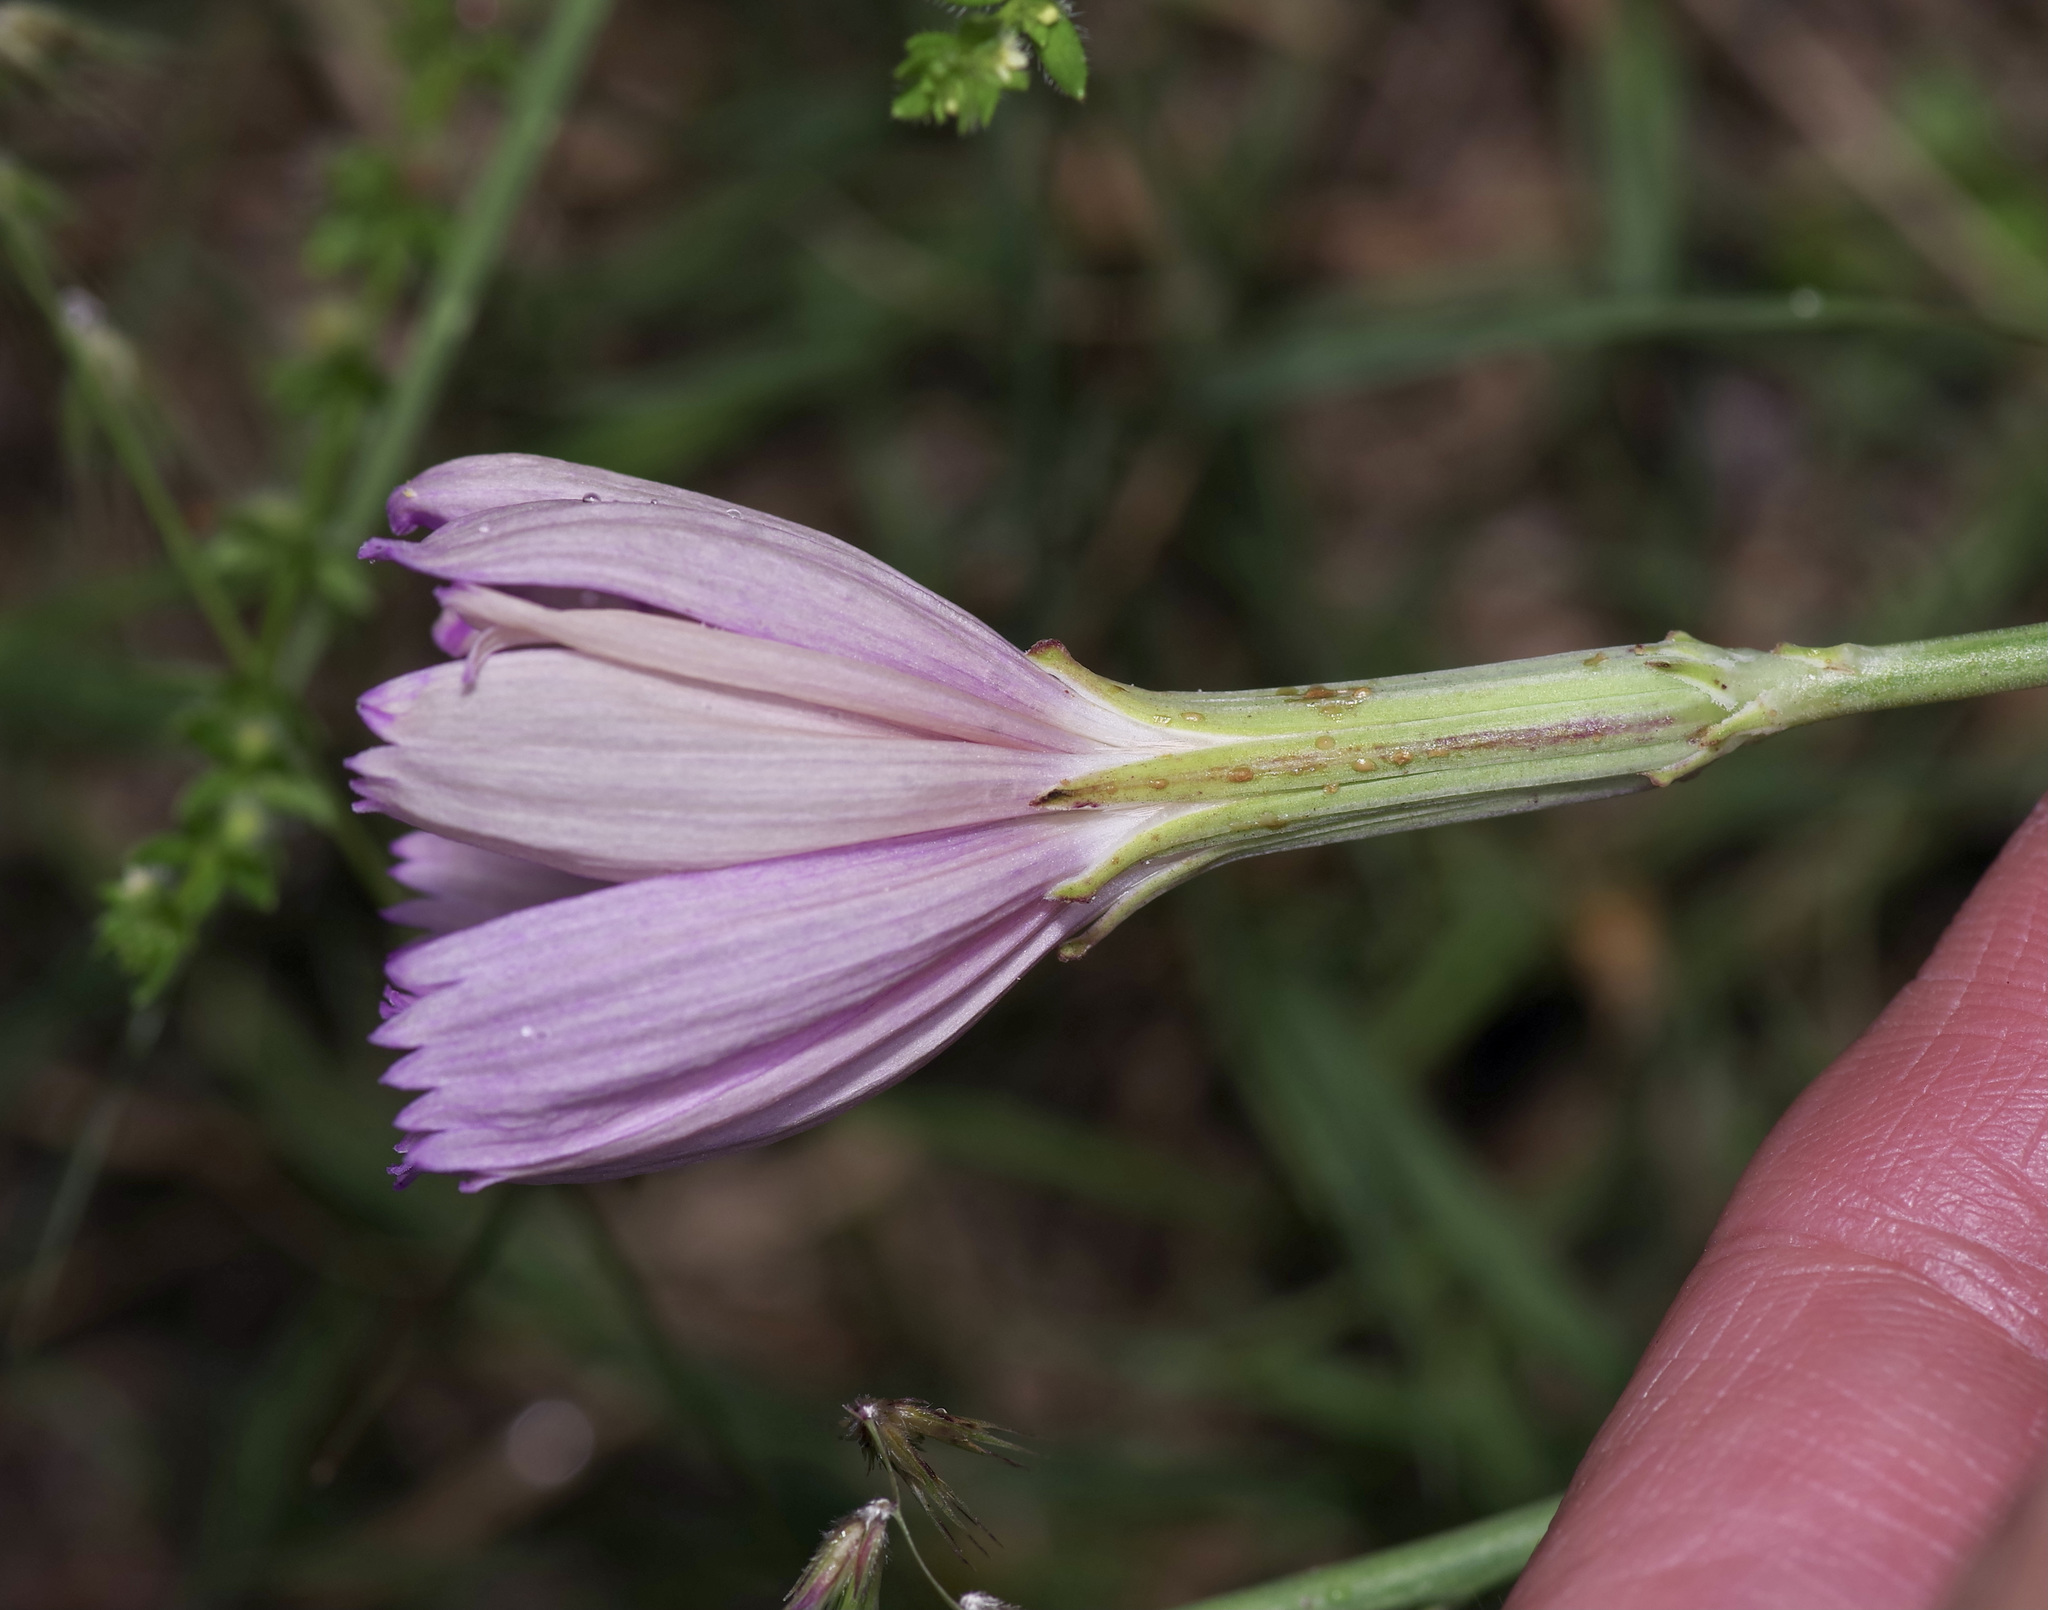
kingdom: Plantae
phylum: Tracheophyta
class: Magnoliopsida
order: Asterales
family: Asteraceae
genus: Lygodesmia
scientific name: Lygodesmia texana
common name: Texas skeleton-plant
